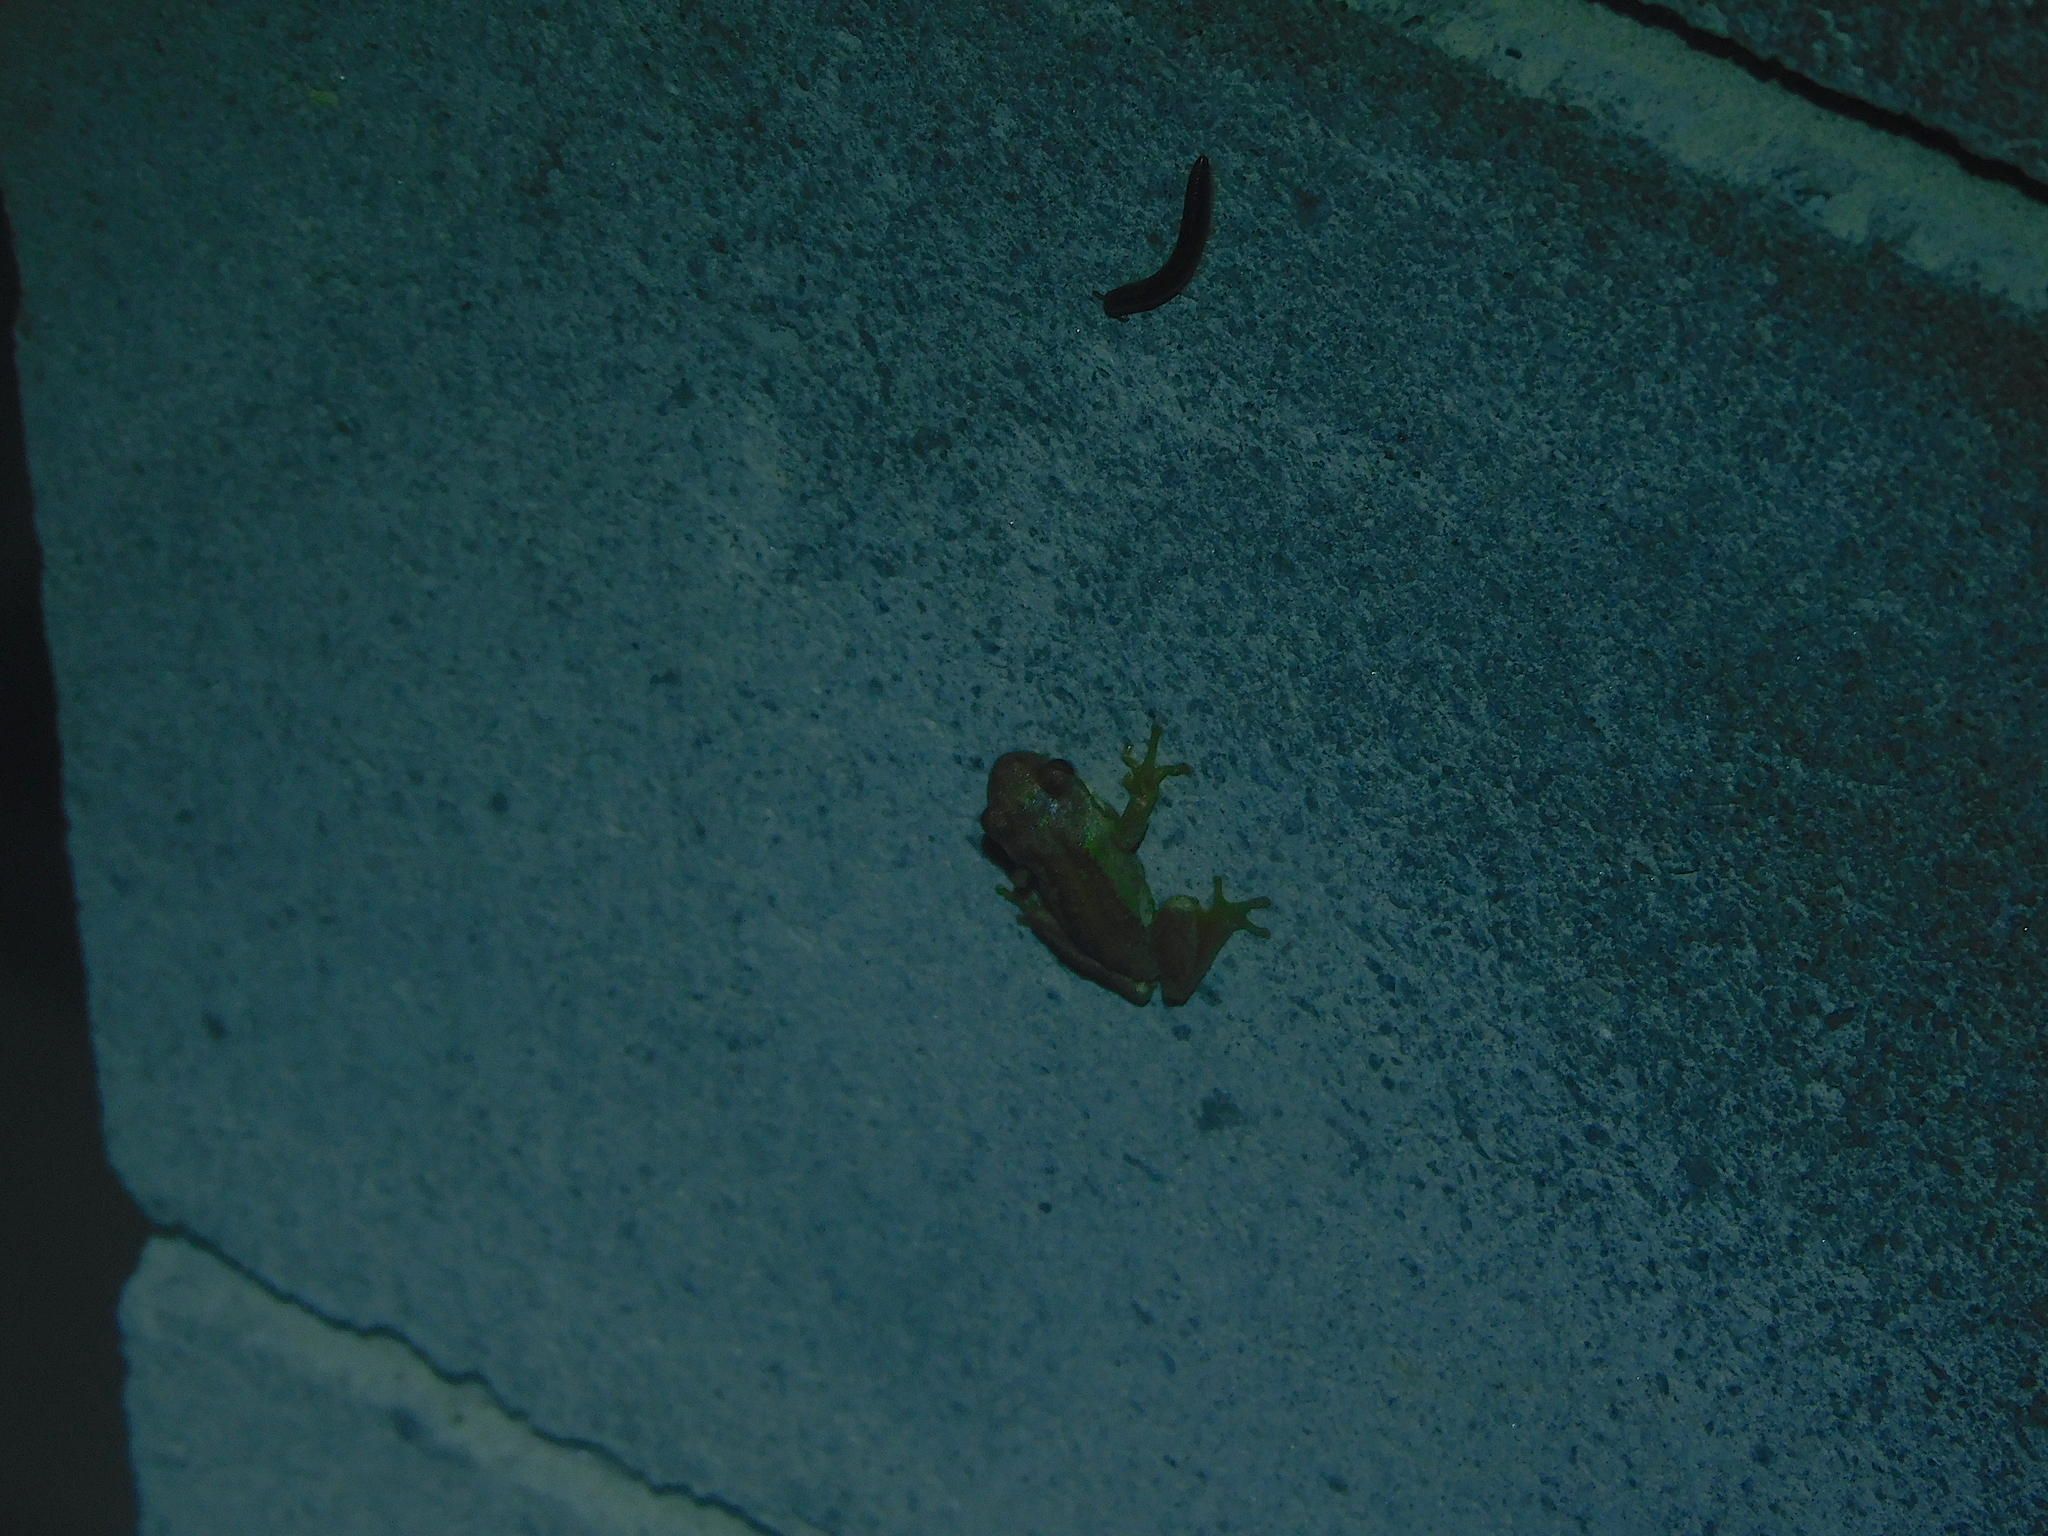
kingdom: Animalia
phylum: Chordata
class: Amphibia
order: Anura
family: Pelodryadidae
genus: Litoria
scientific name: Litoria ewingii
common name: Southern brown tree frog
